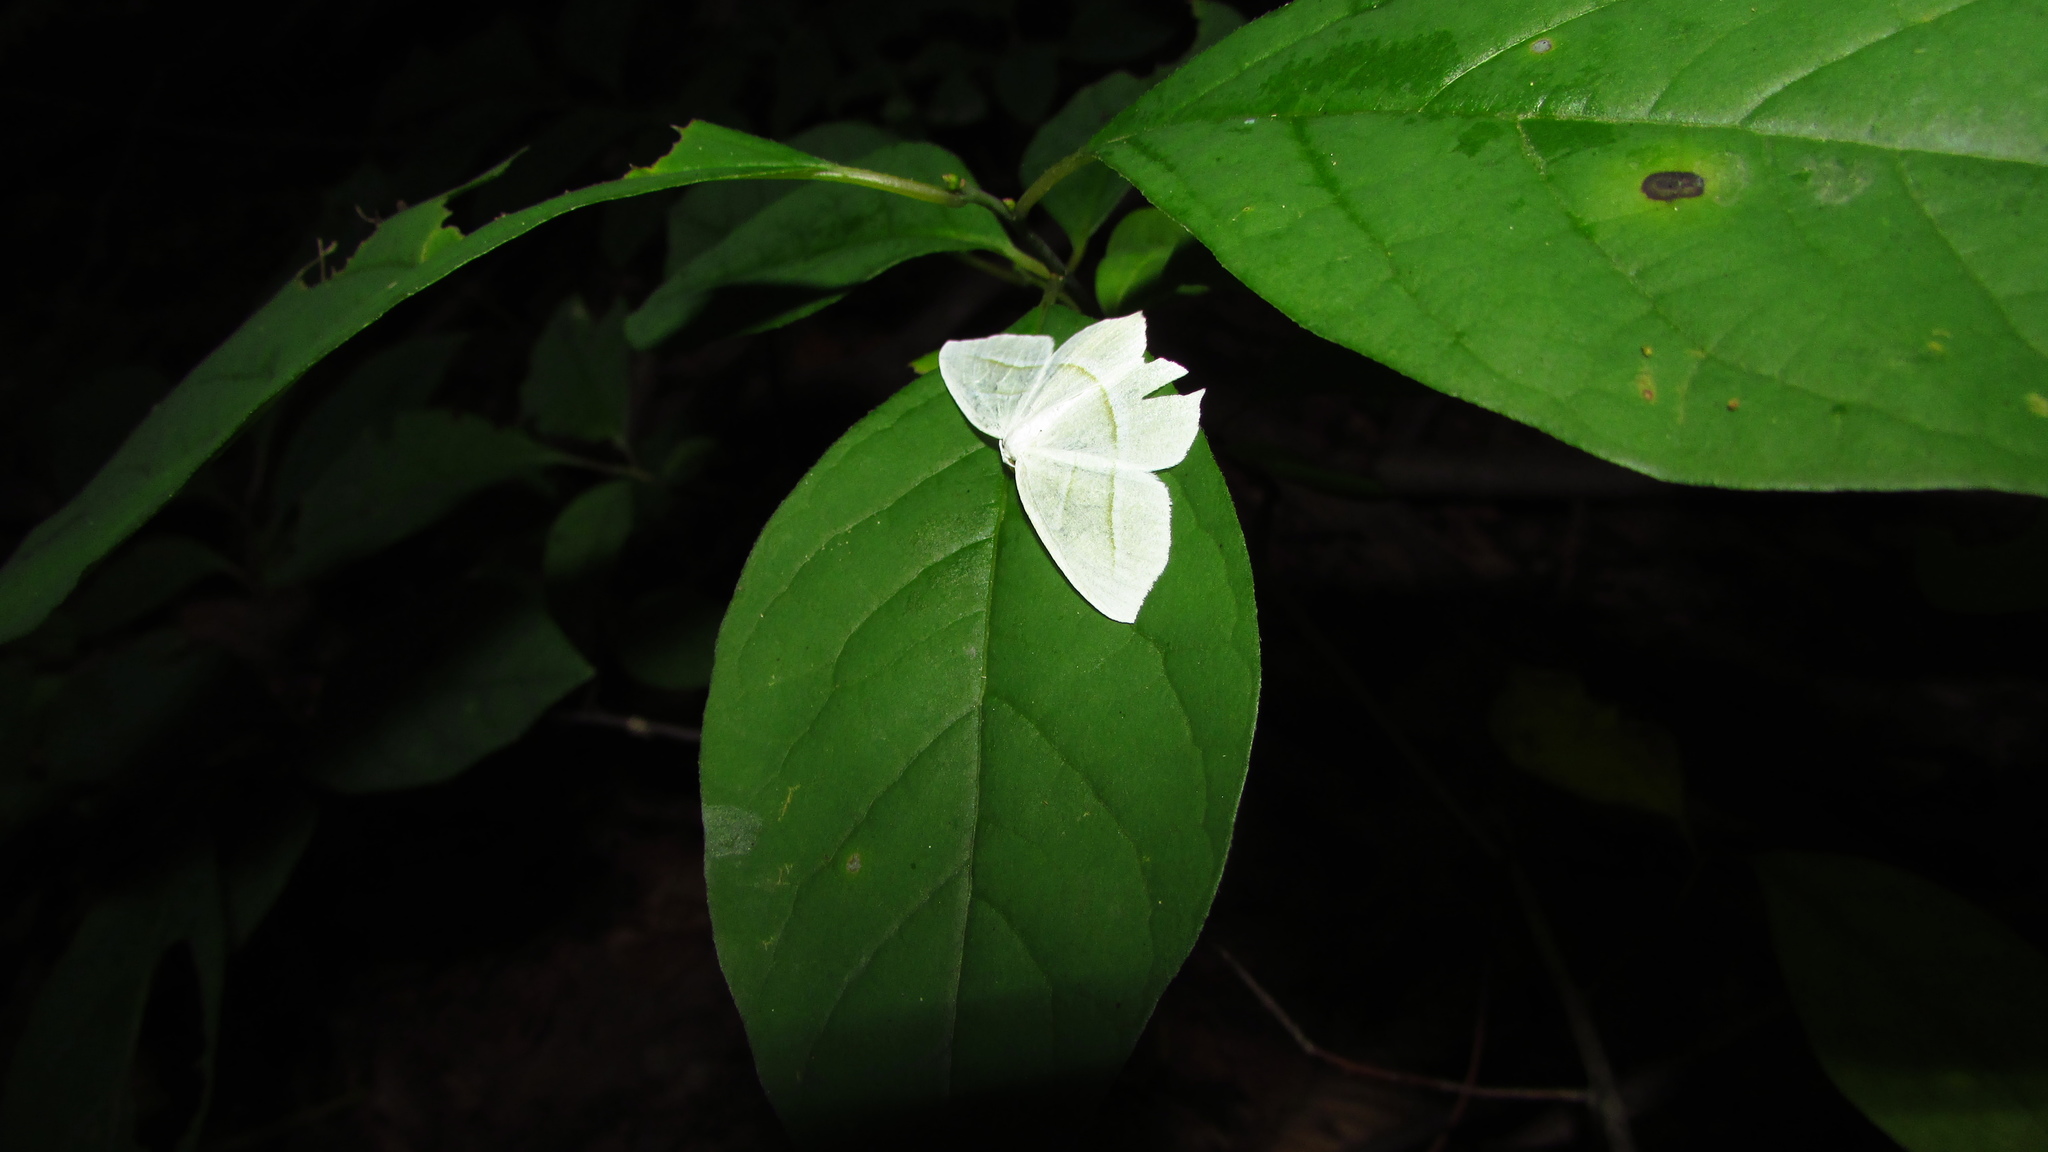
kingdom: Animalia
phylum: Arthropoda
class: Insecta
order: Lepidoptera
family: Geometridae
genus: Campaea
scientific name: Campaea perlata
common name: Fringed looper
